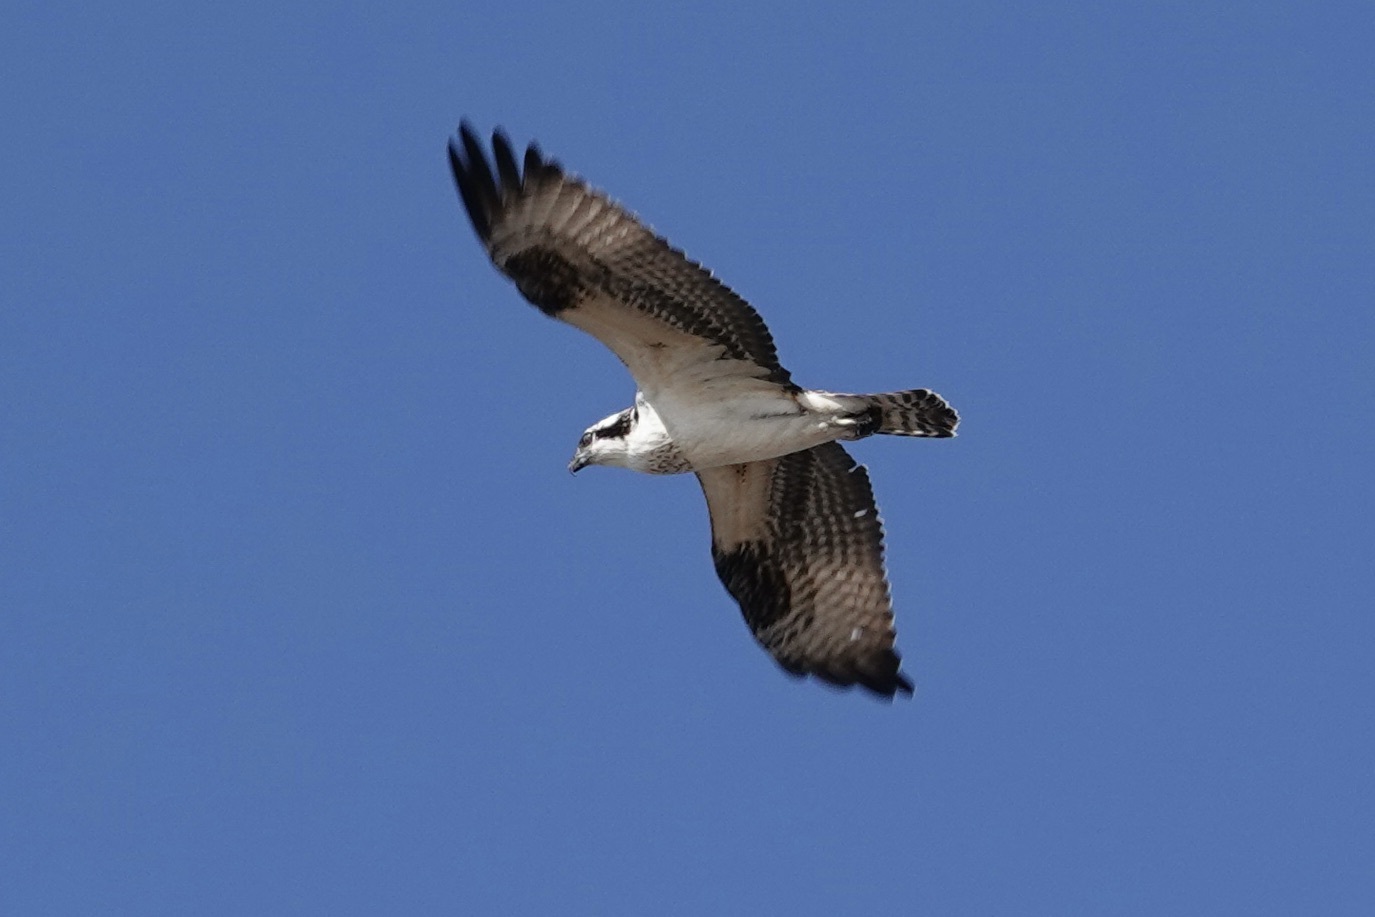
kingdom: Animalia
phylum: Chordata
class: Aves
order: Accipitriformes
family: Pandionidae
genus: Pandion
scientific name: Pandion haliaetus
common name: Osprey
